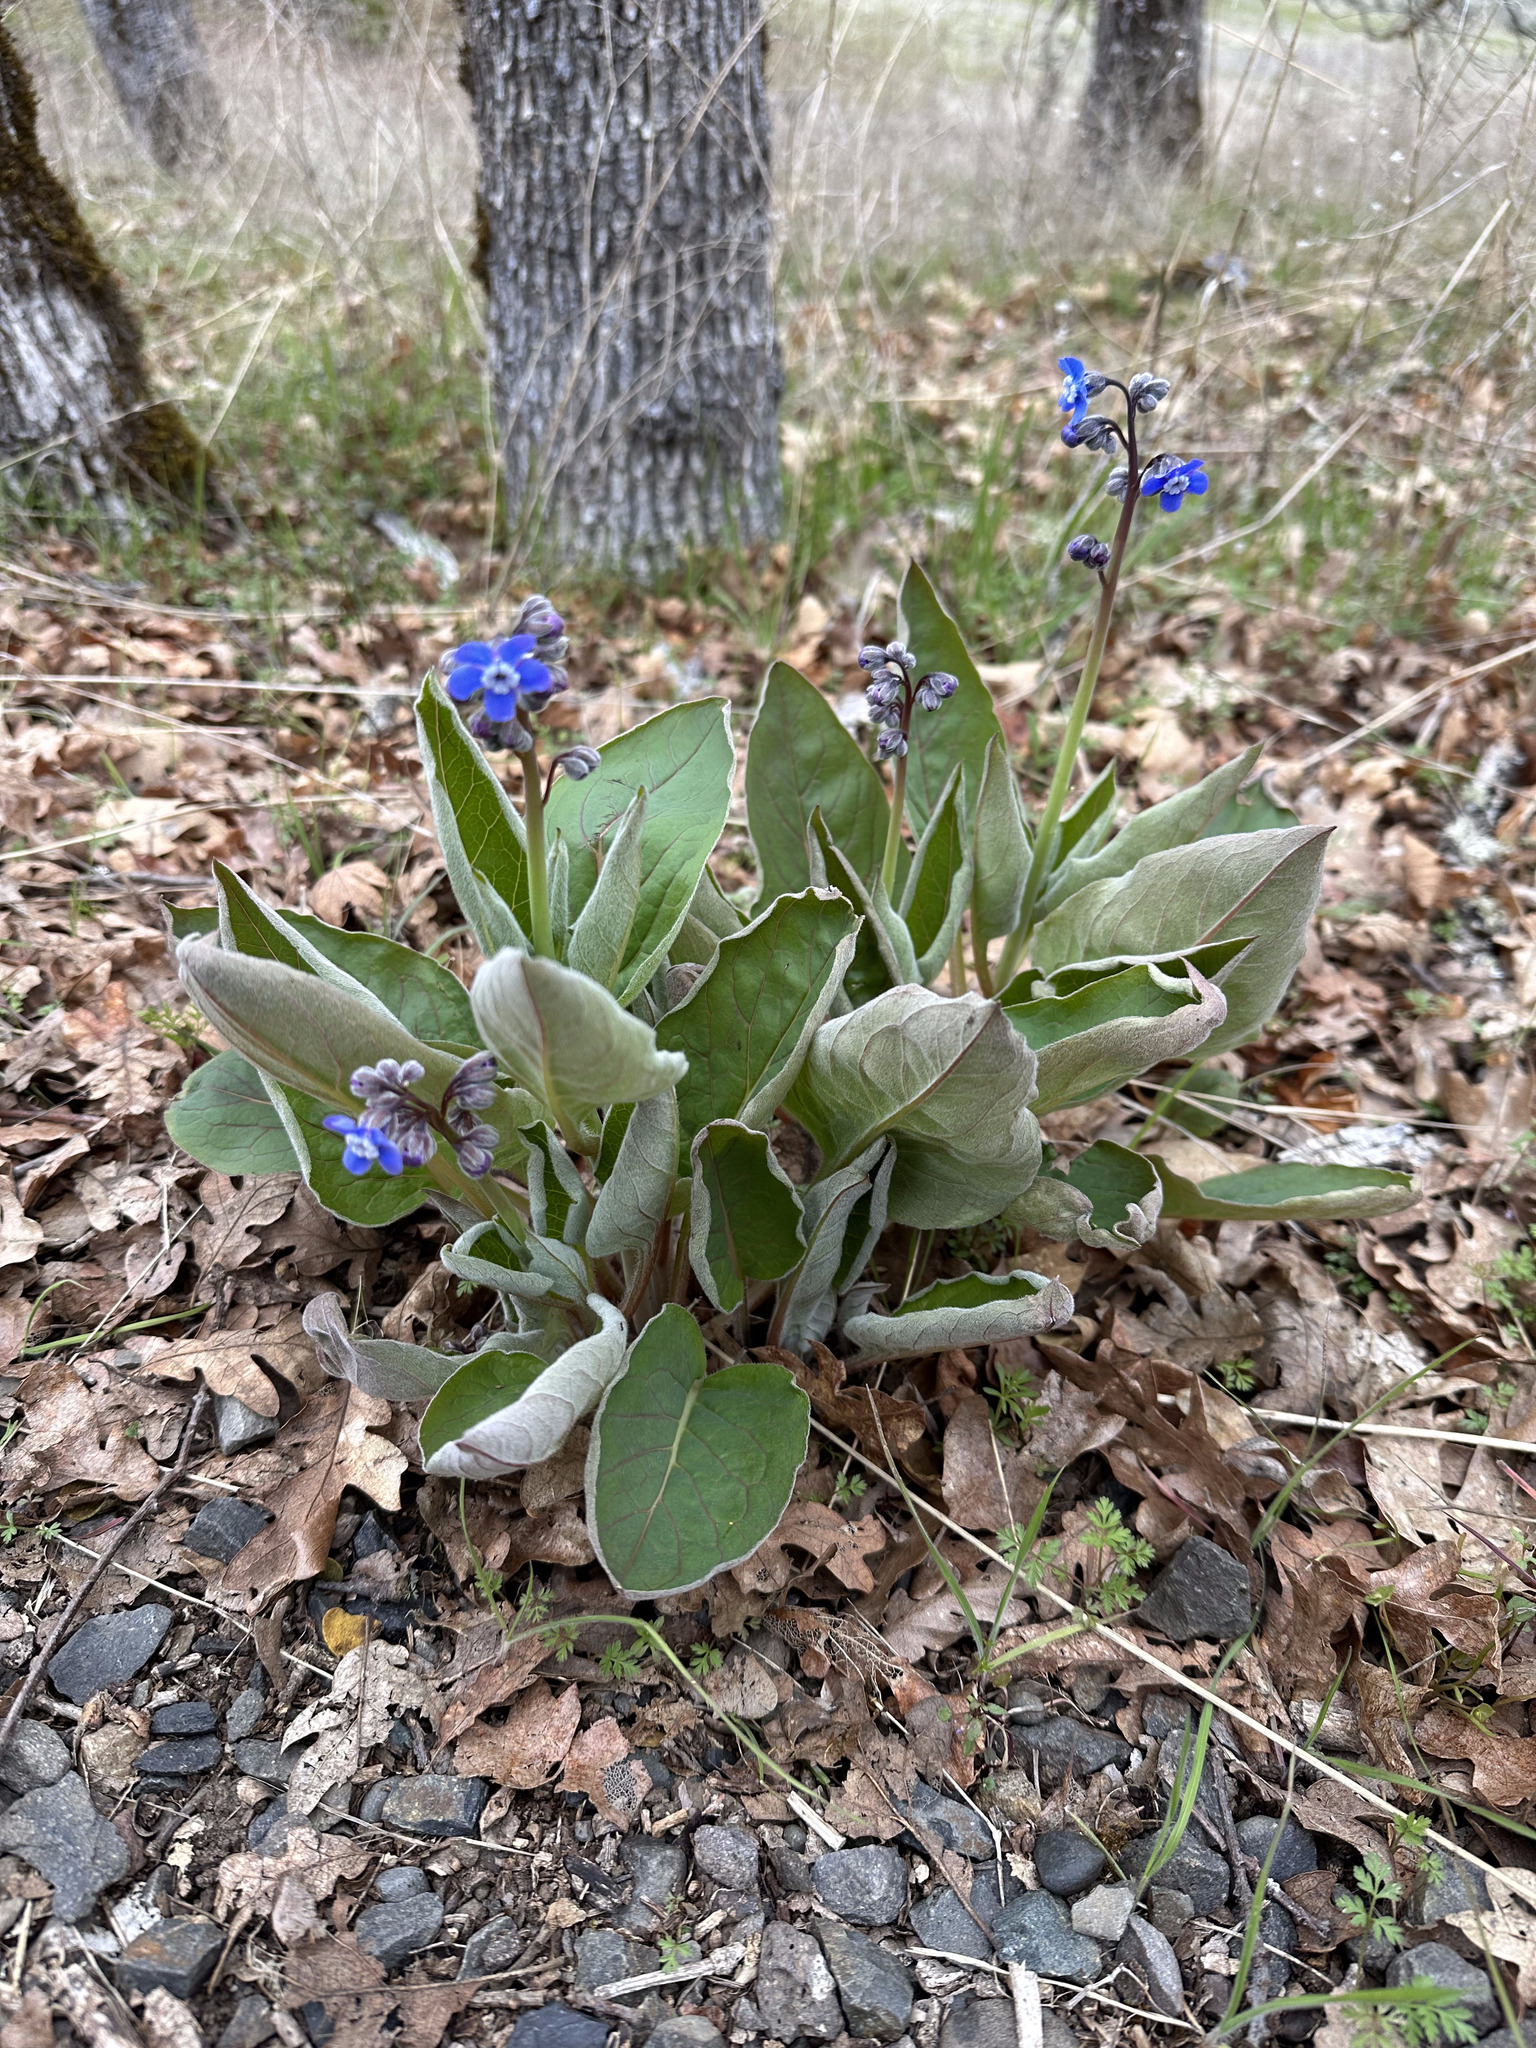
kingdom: Plantae
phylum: Tracheophyta
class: Magnoliopsida
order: Boraginales
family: Boraginaceae
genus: Adelinia
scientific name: Adelinia grande
